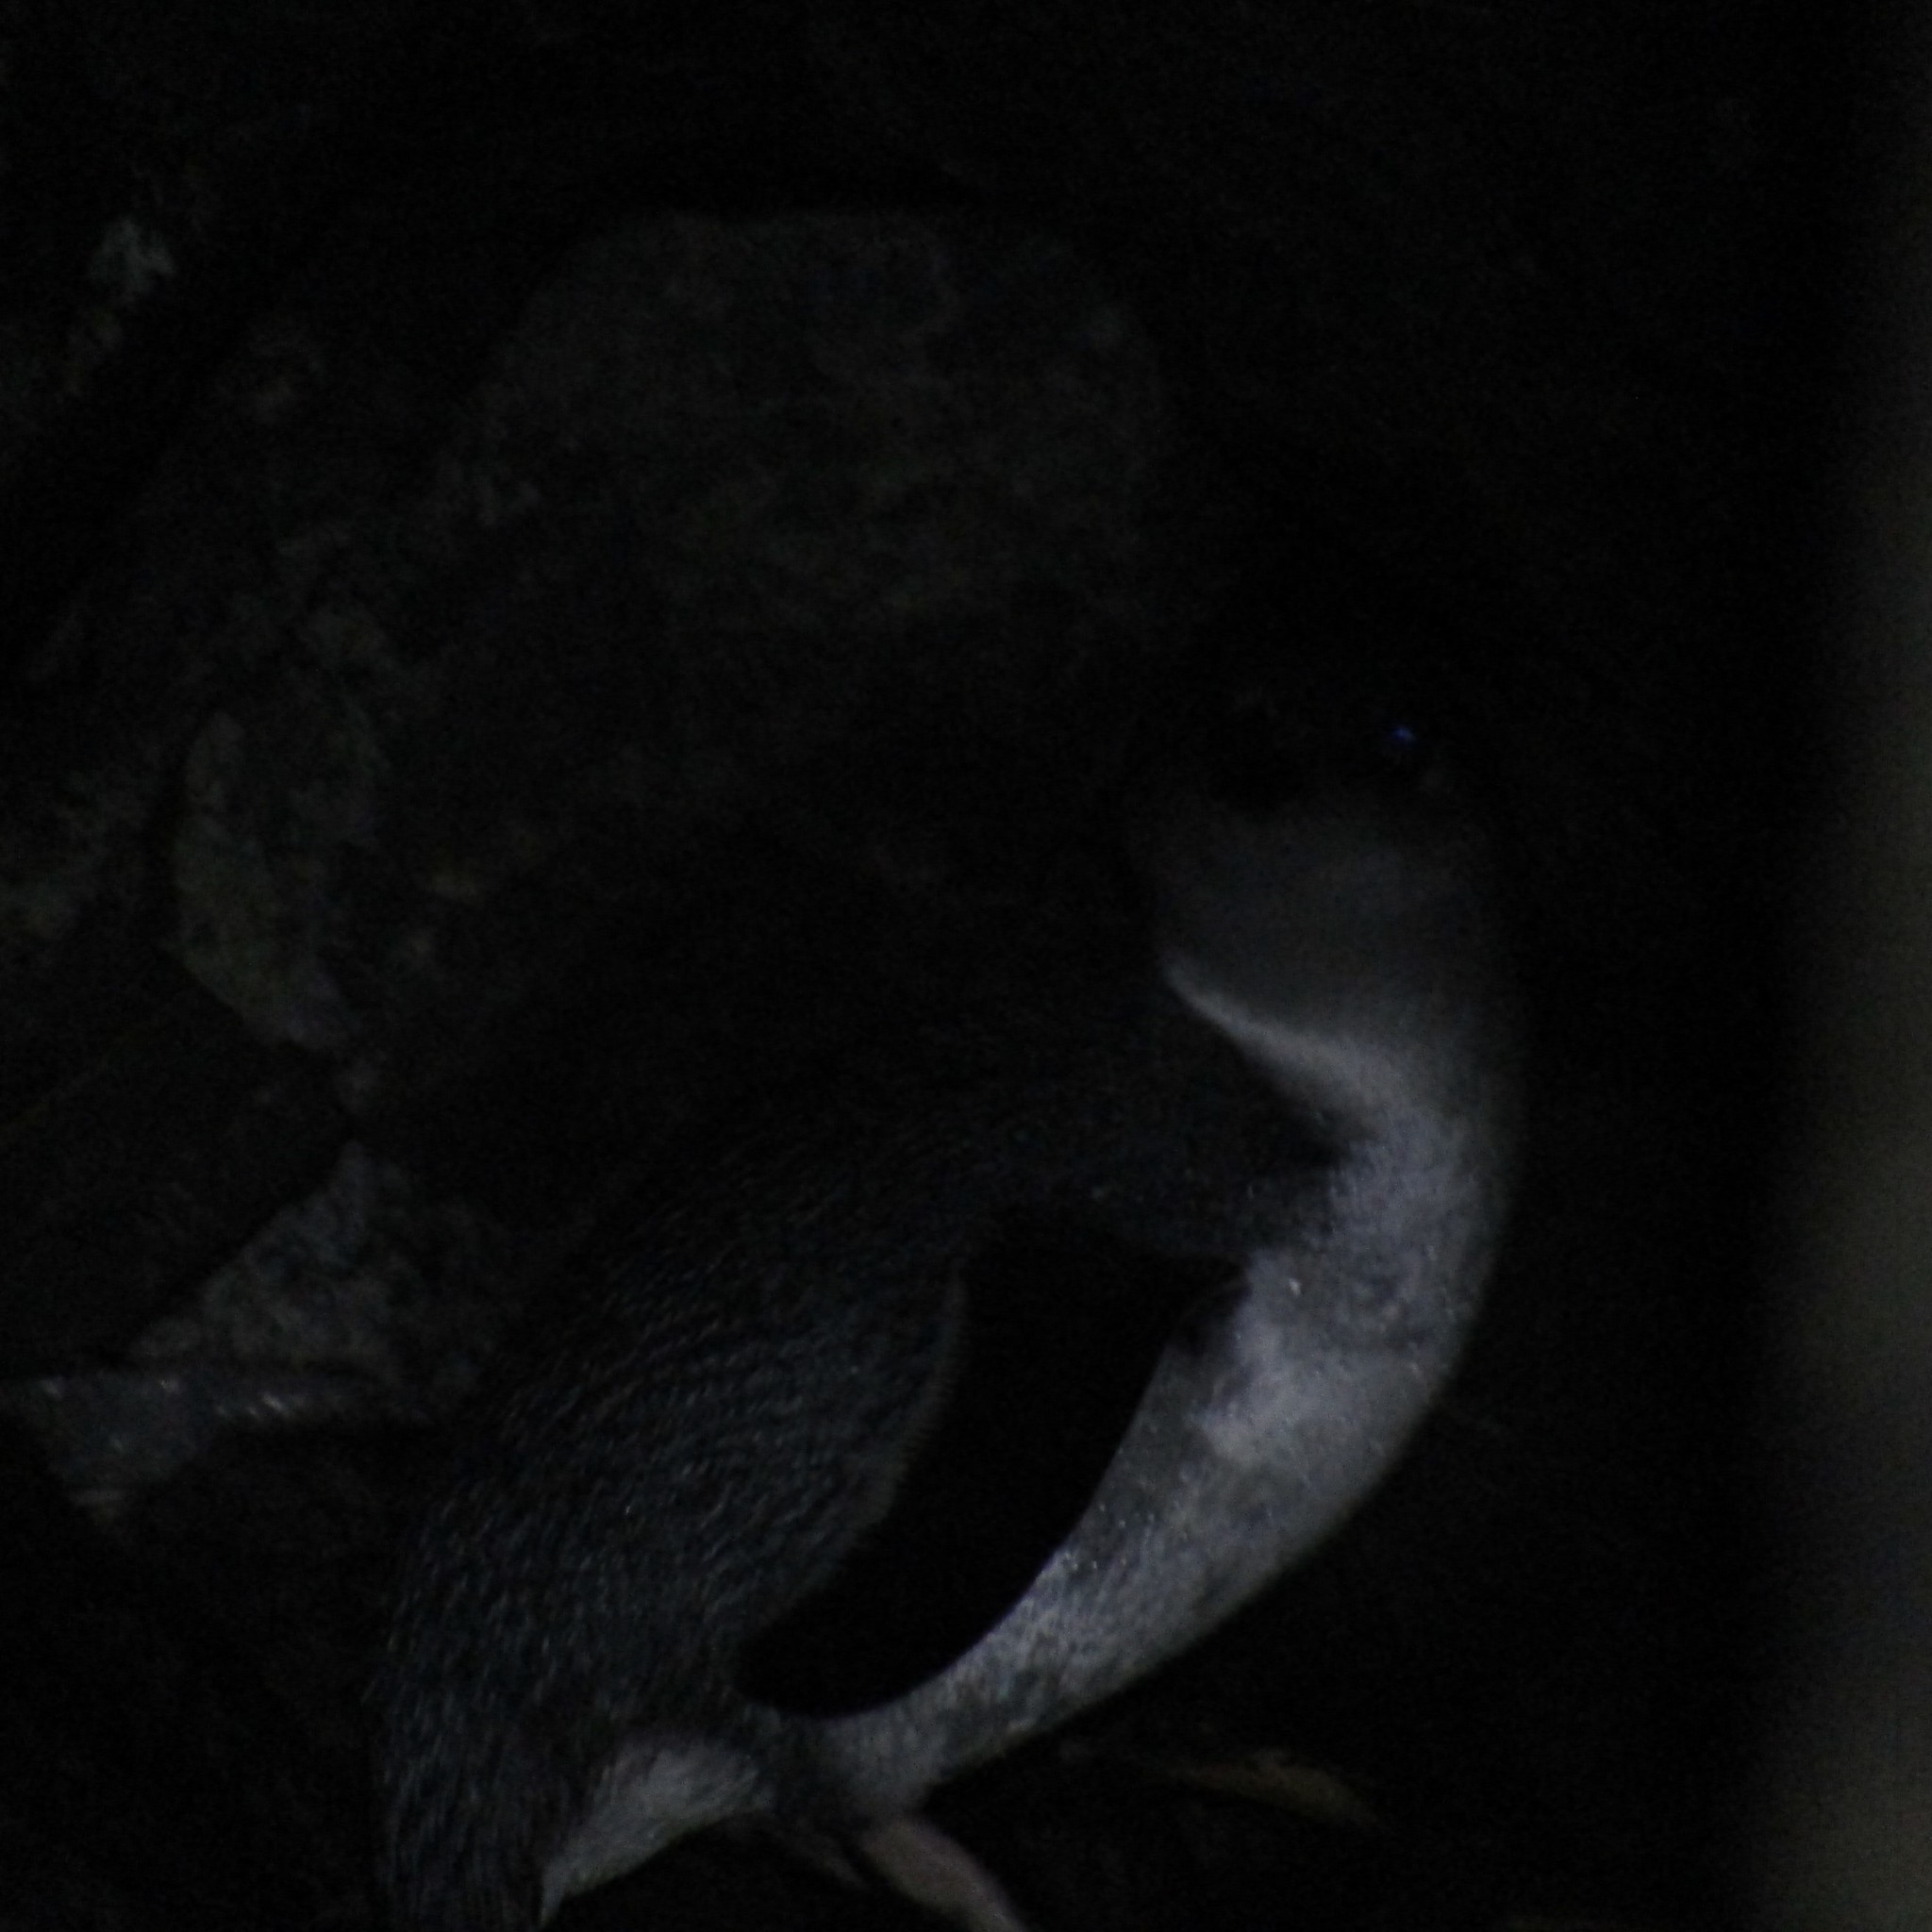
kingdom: Animalia
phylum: Chordata
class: Aves
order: Sphenisciformes
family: Spheniscidae
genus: Eudyptula
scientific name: Eudyptula minor
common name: Little penguin
